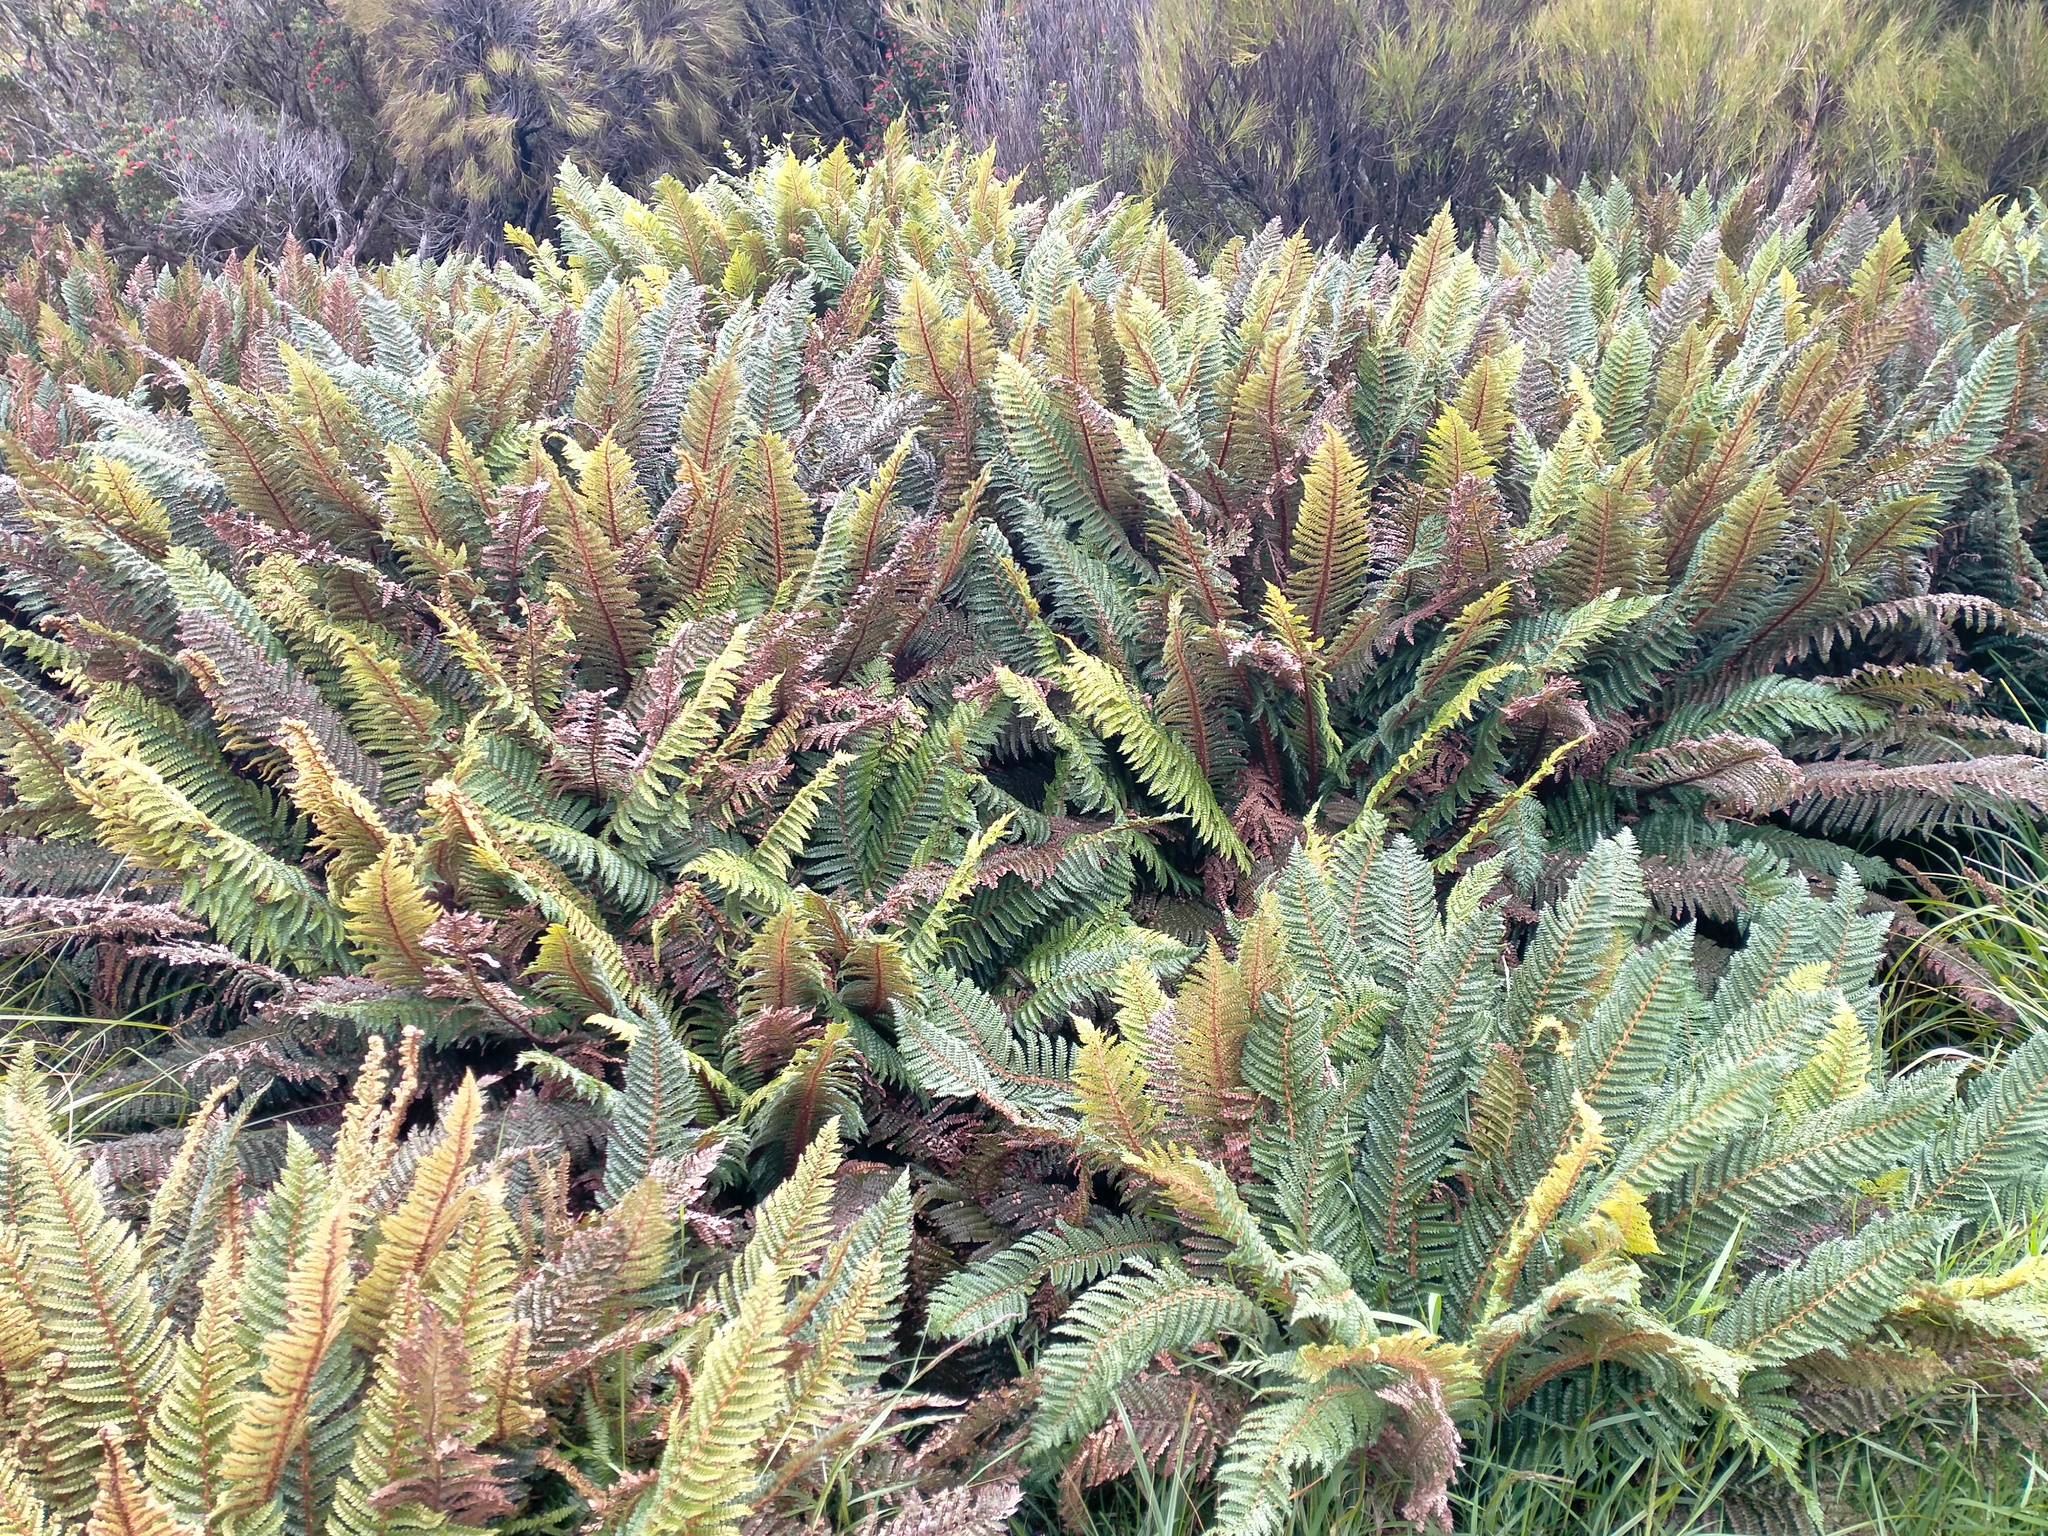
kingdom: Plantae
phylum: Tracheophyta
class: Polypodiopsida
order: Polypodiales
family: Dryopteridaceae
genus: Polystichum
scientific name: Polystichum vestitum
